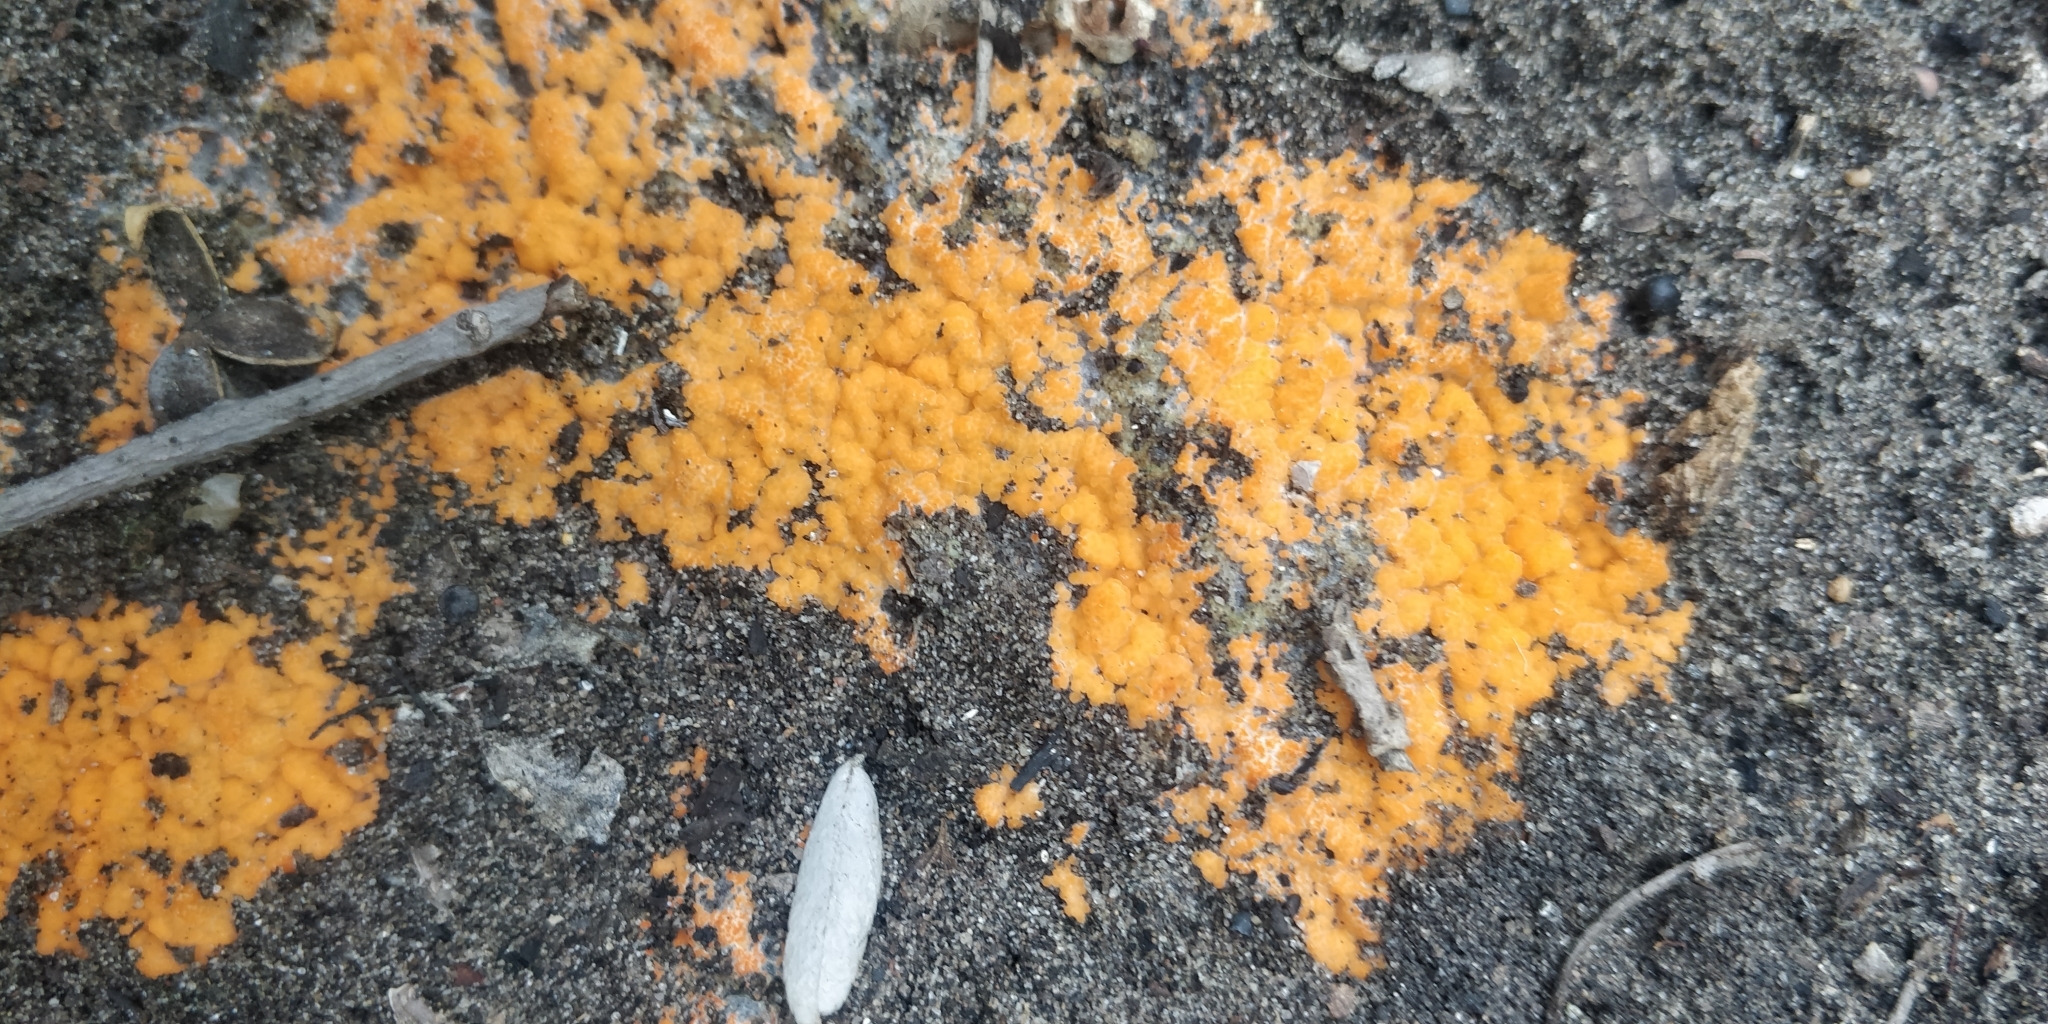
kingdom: Fungi
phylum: Ascomycota
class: Pezizomycetes
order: Pezizales
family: Pyronemataceae
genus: Pyronema
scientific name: Pyronema omphalodes
